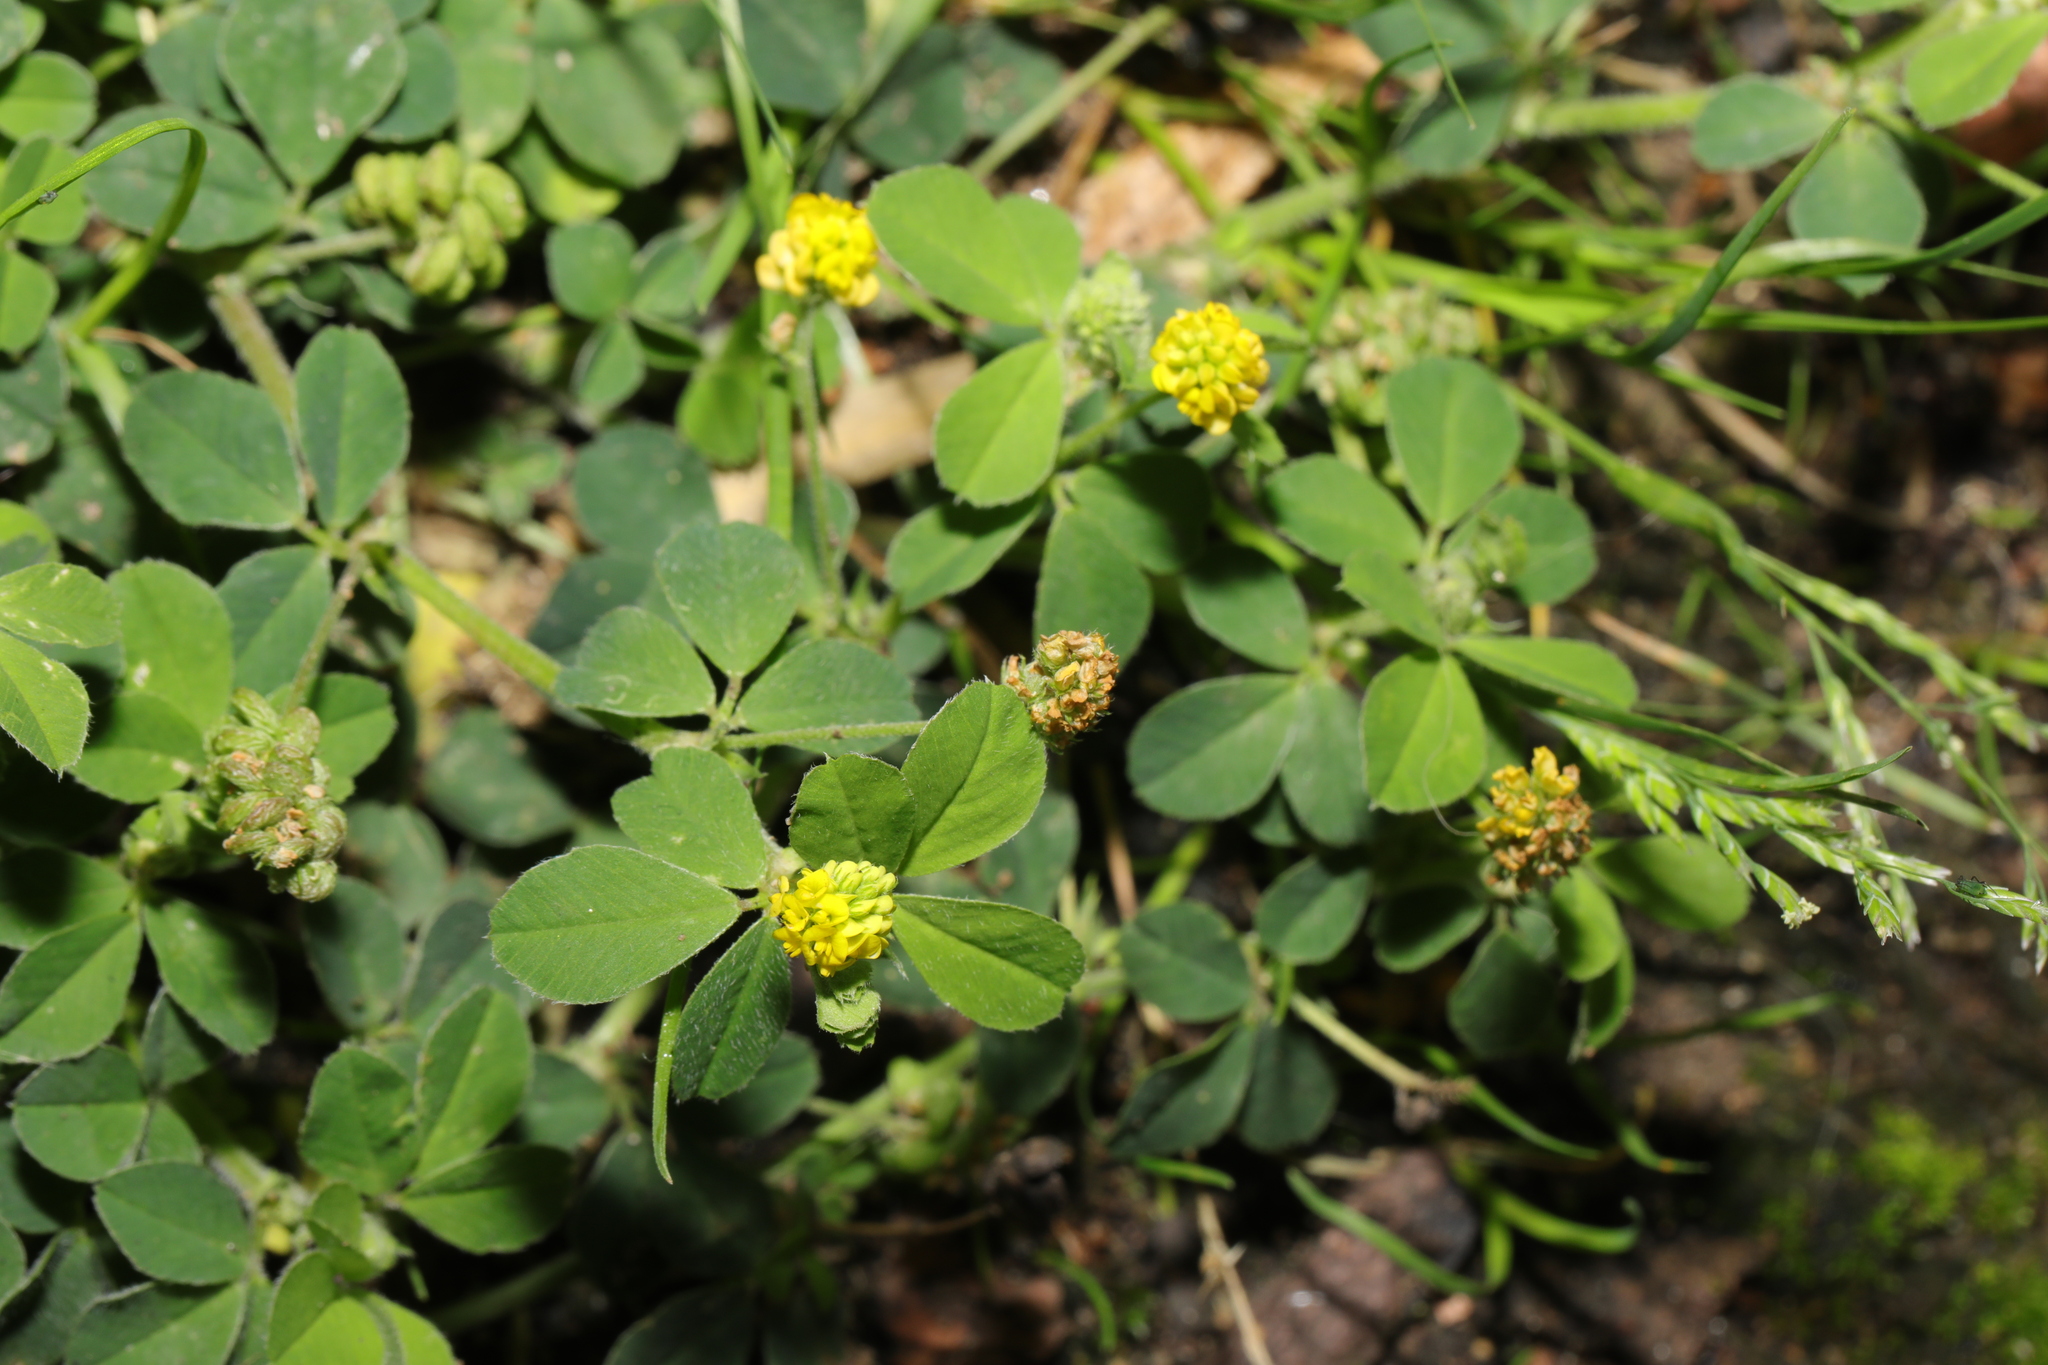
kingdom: Plantae
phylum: Tracheophyta
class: Magnoliopsida
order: Fabales
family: Fabaceae
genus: Medicago
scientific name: Medicago lupulina
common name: Black medick
